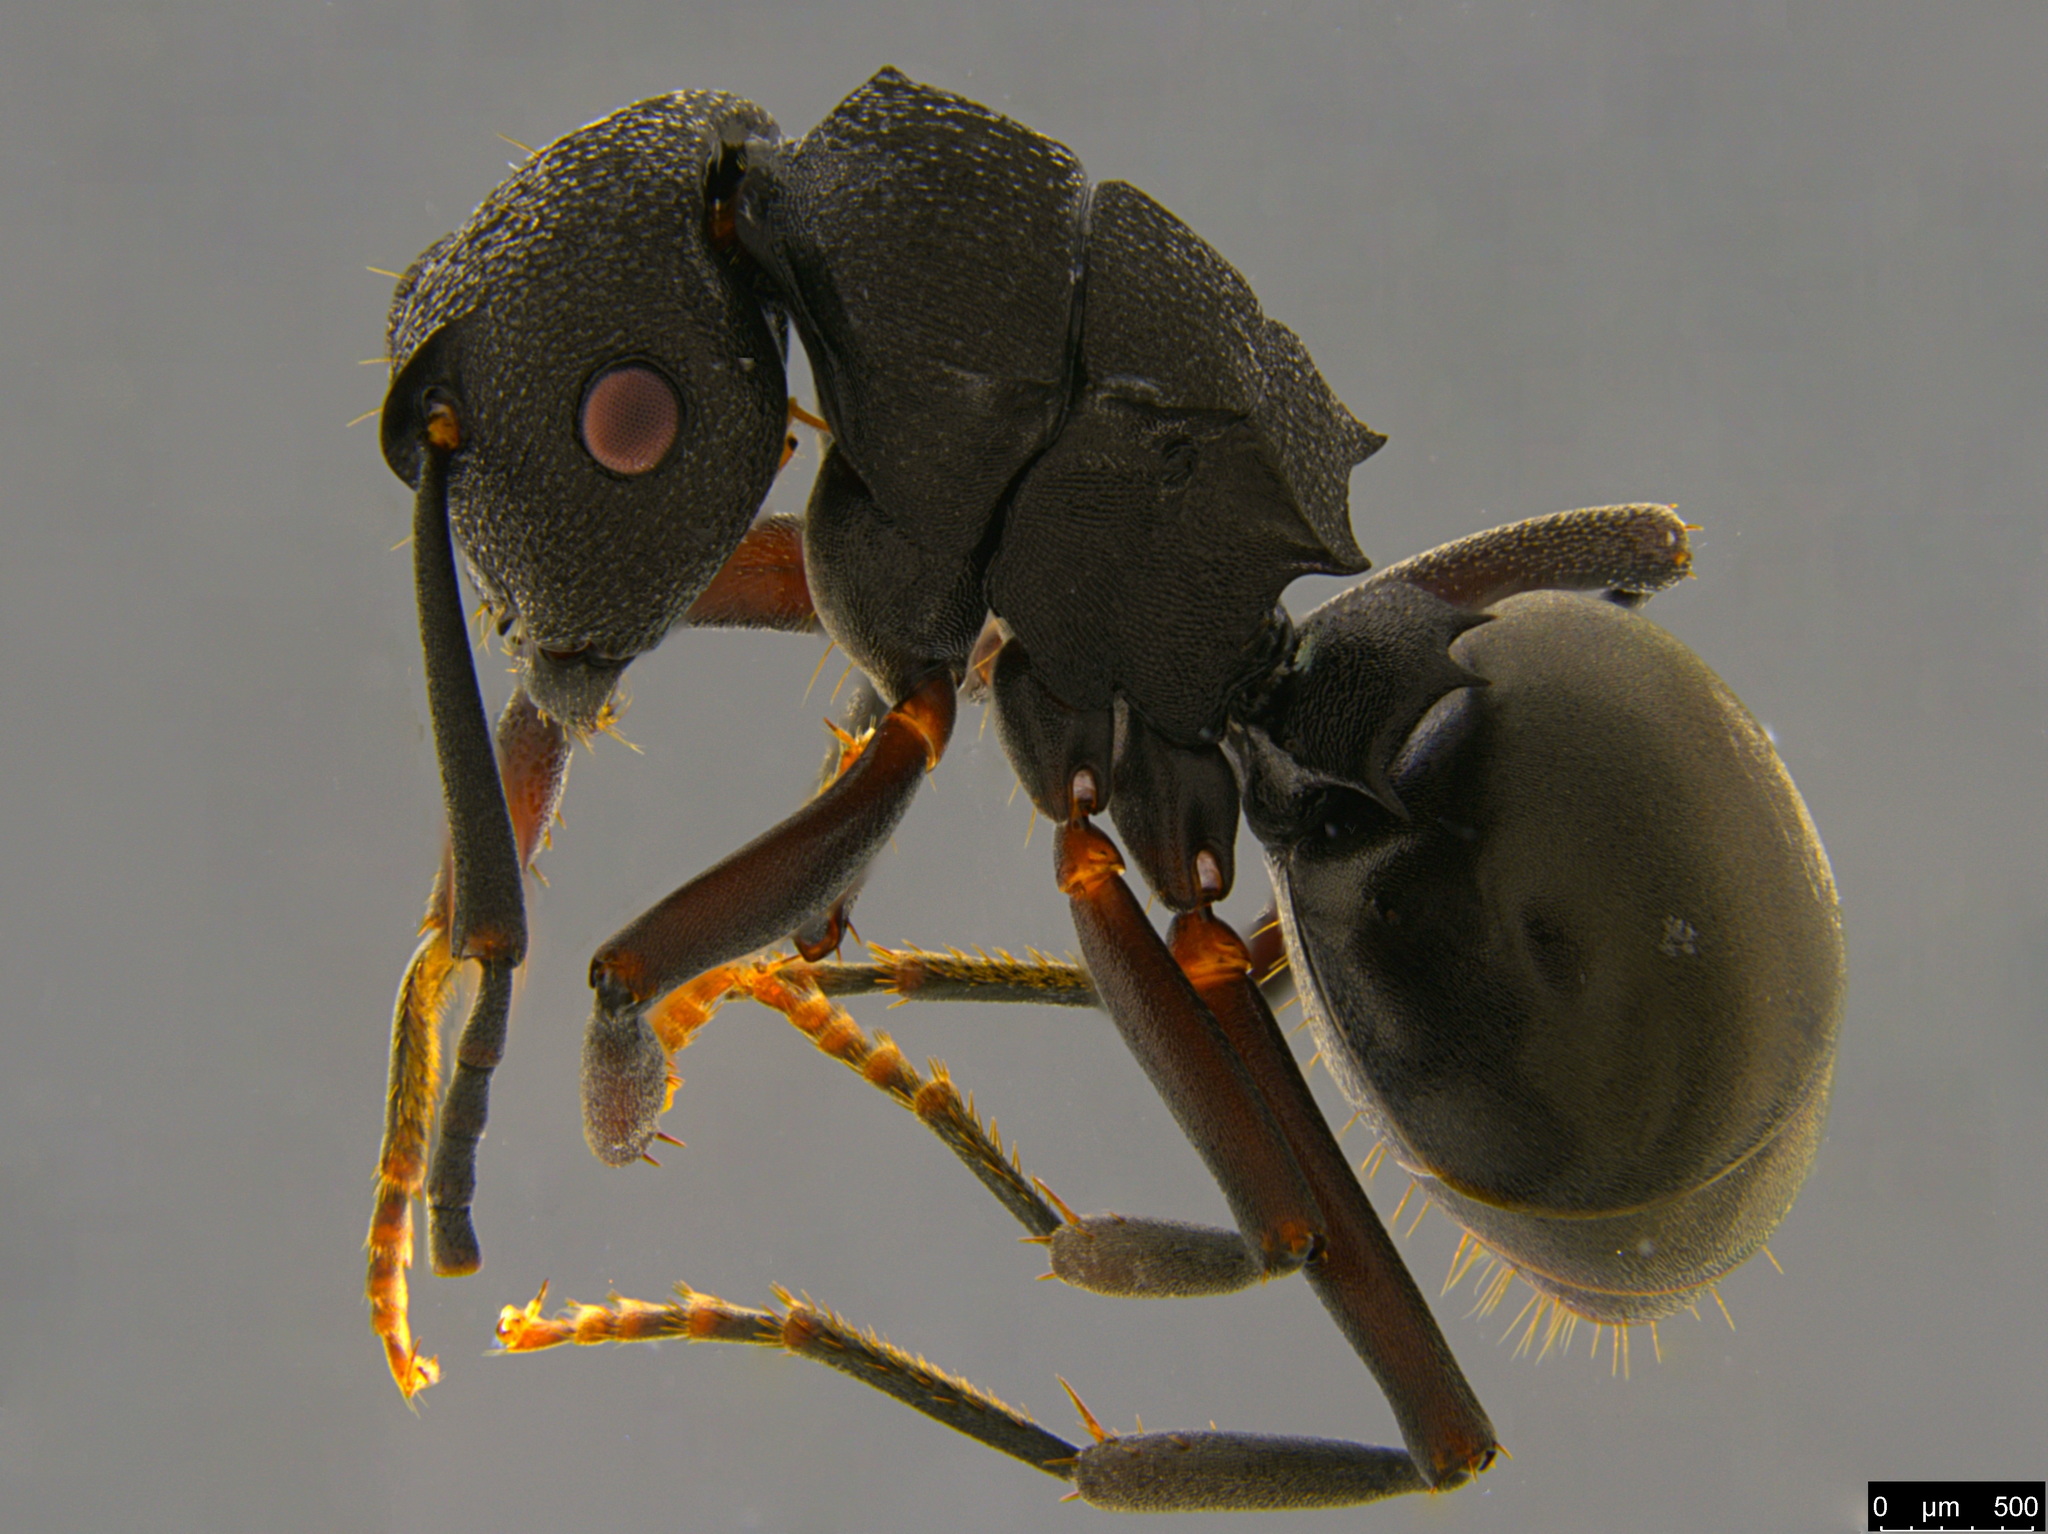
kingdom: Animalia
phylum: Arthropoda
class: Insecta
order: Hymenoptera
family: Formicidae
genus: Polyrhachis
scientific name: Polyrhachis phryne
